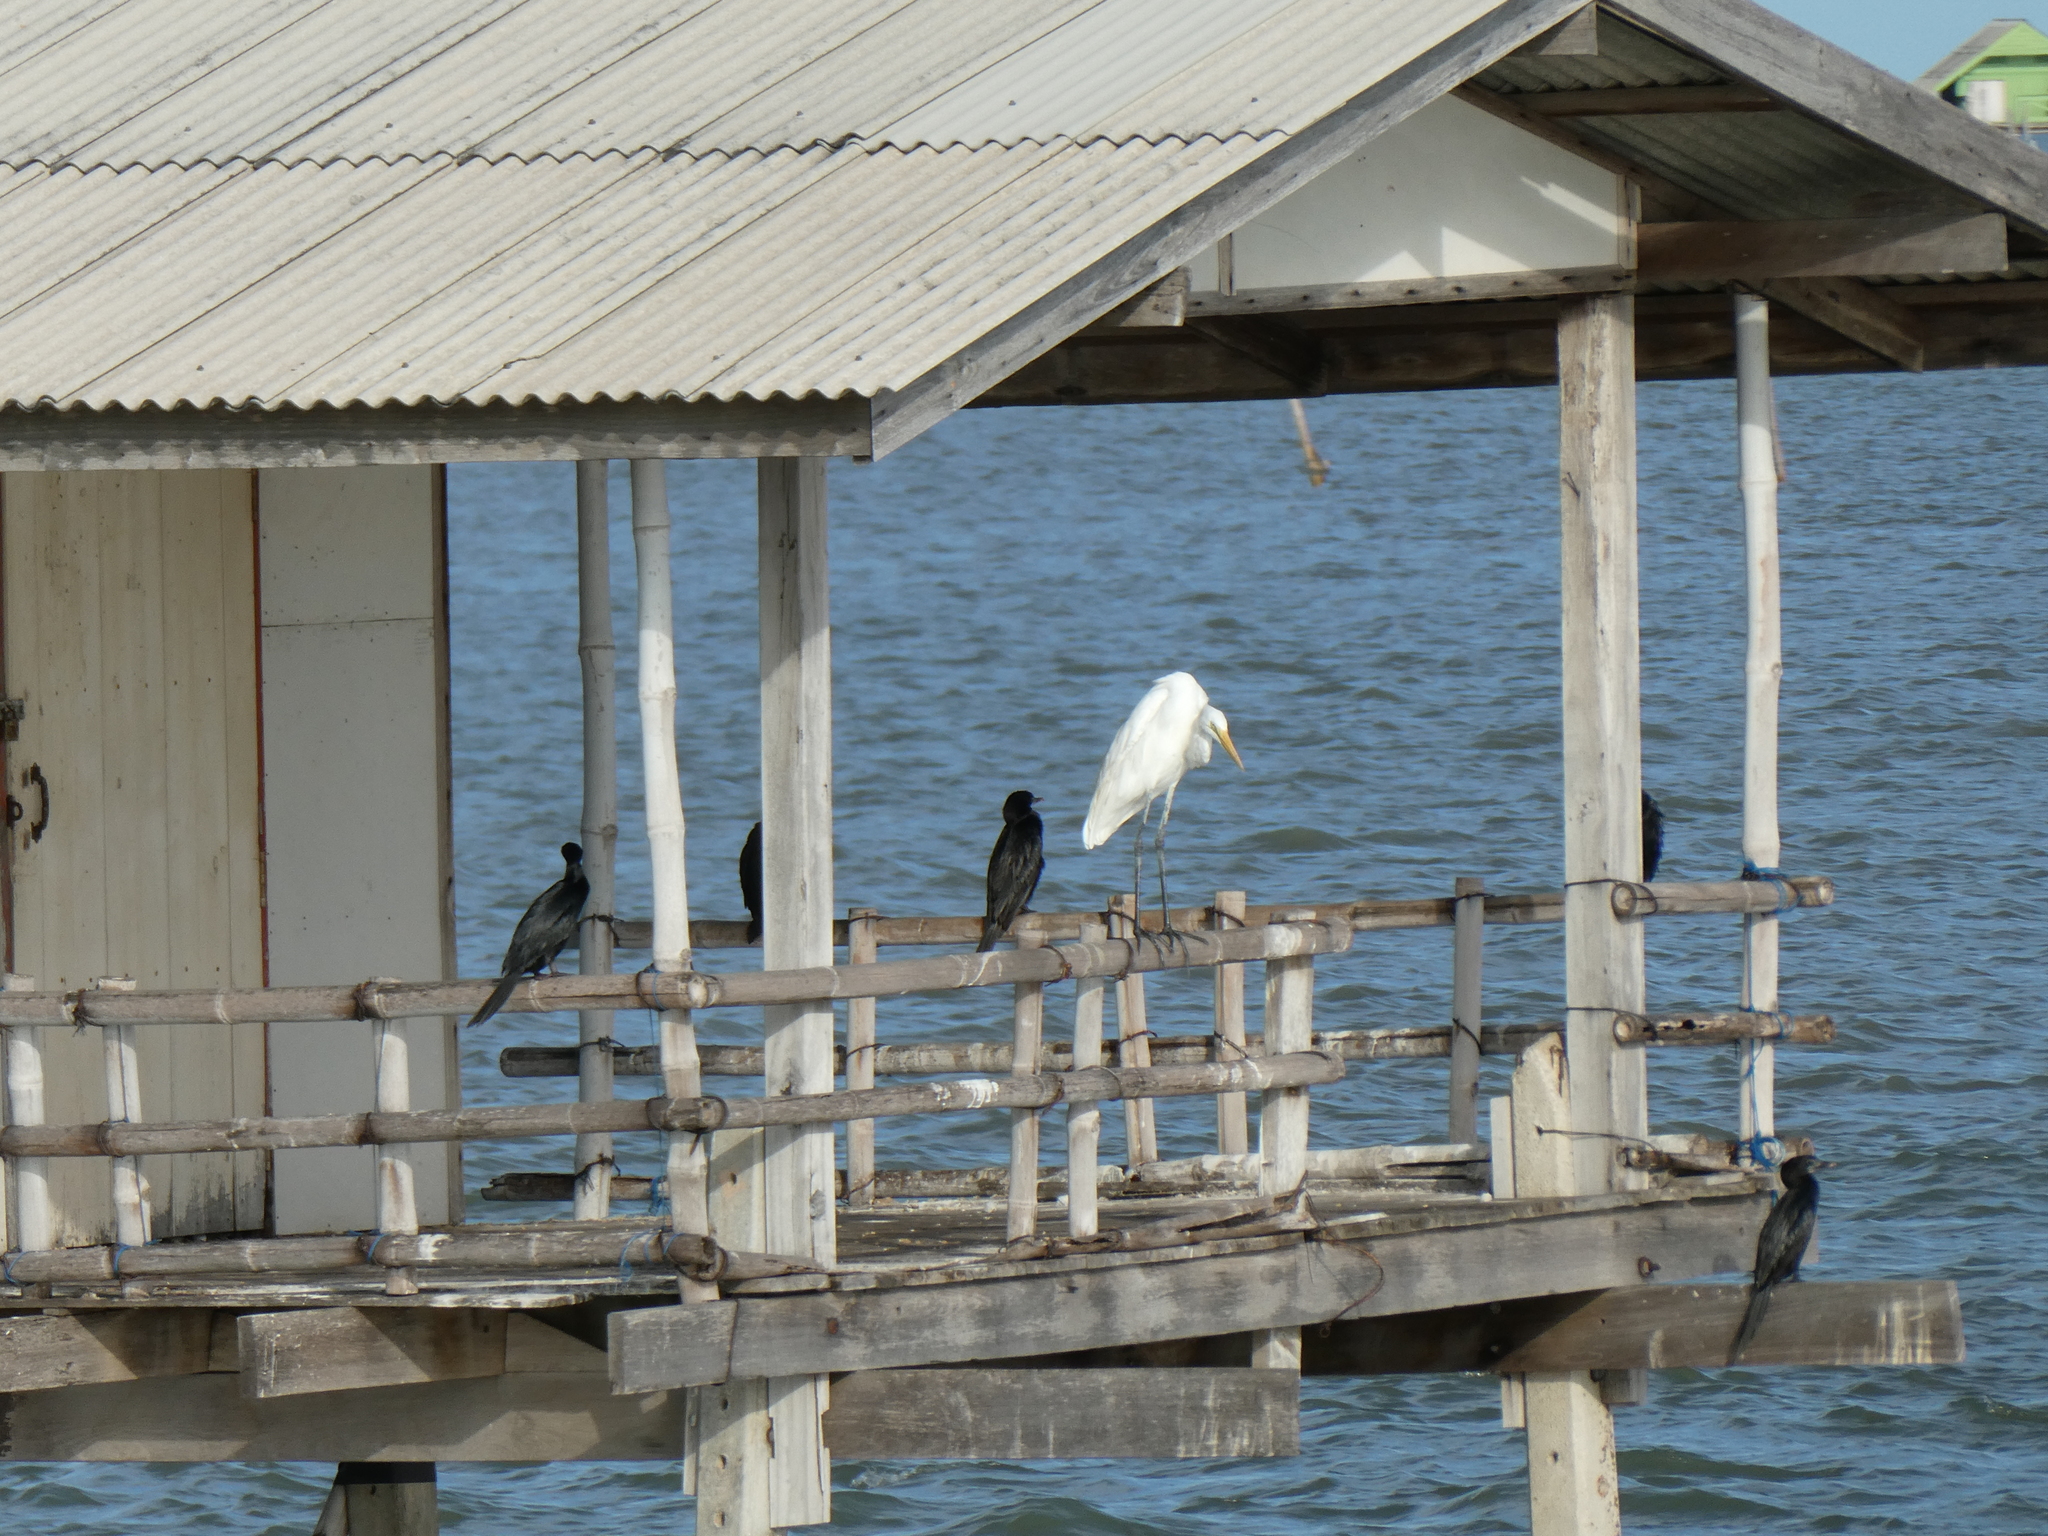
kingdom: Animalia
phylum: Chordata
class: Aves
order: Pelecaniformes
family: Ardeidae
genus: Ardea
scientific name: Ardea alba
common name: Great egret
